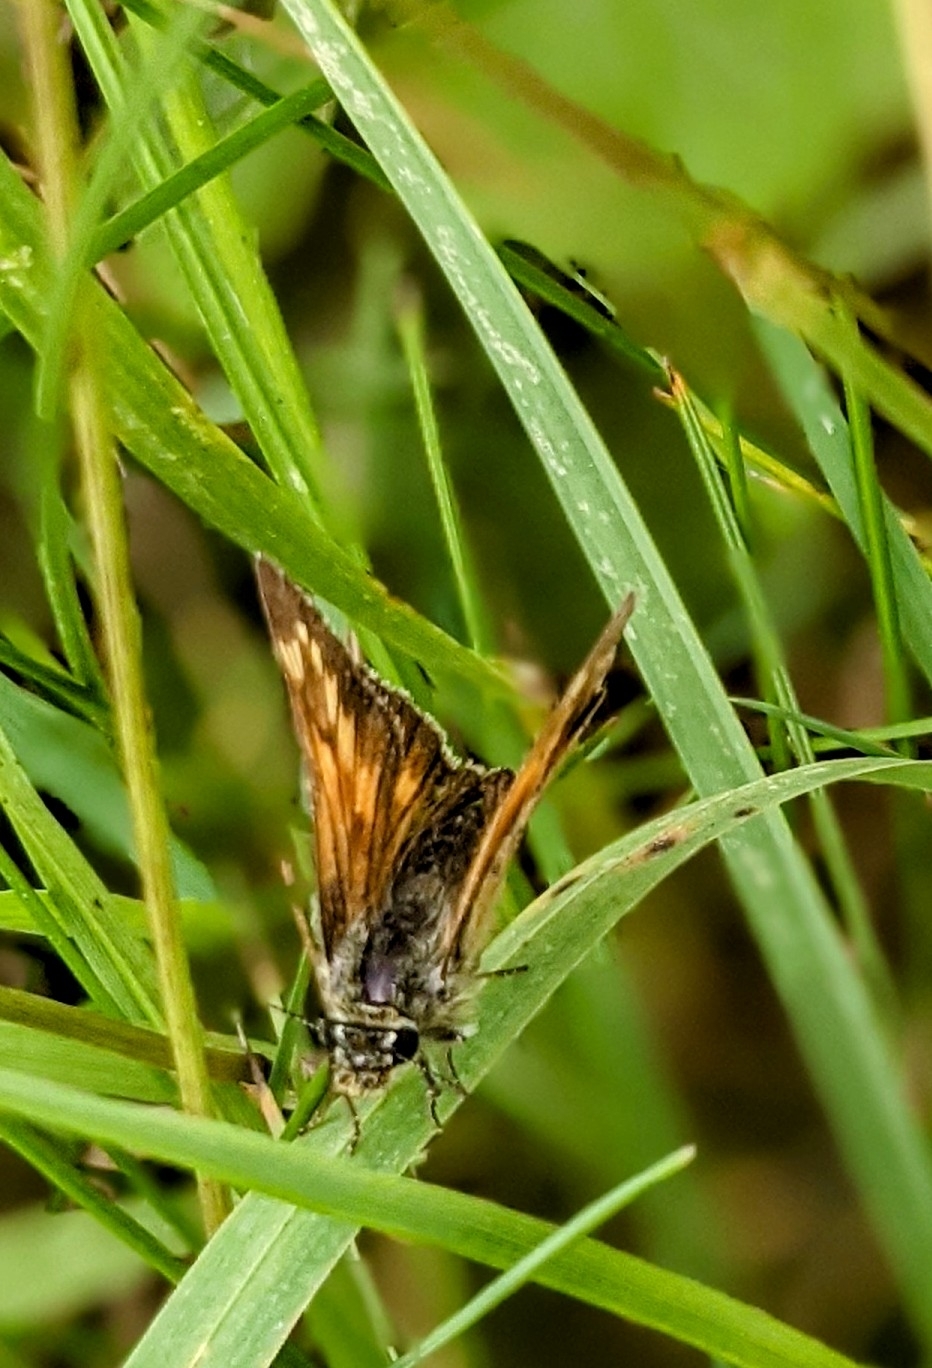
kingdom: Animalia
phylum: Arthropoda
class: Insecta
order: Lepidoptera
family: Hesperiidae
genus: Ochlodes
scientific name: Ochlodes venata
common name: Large skipper
